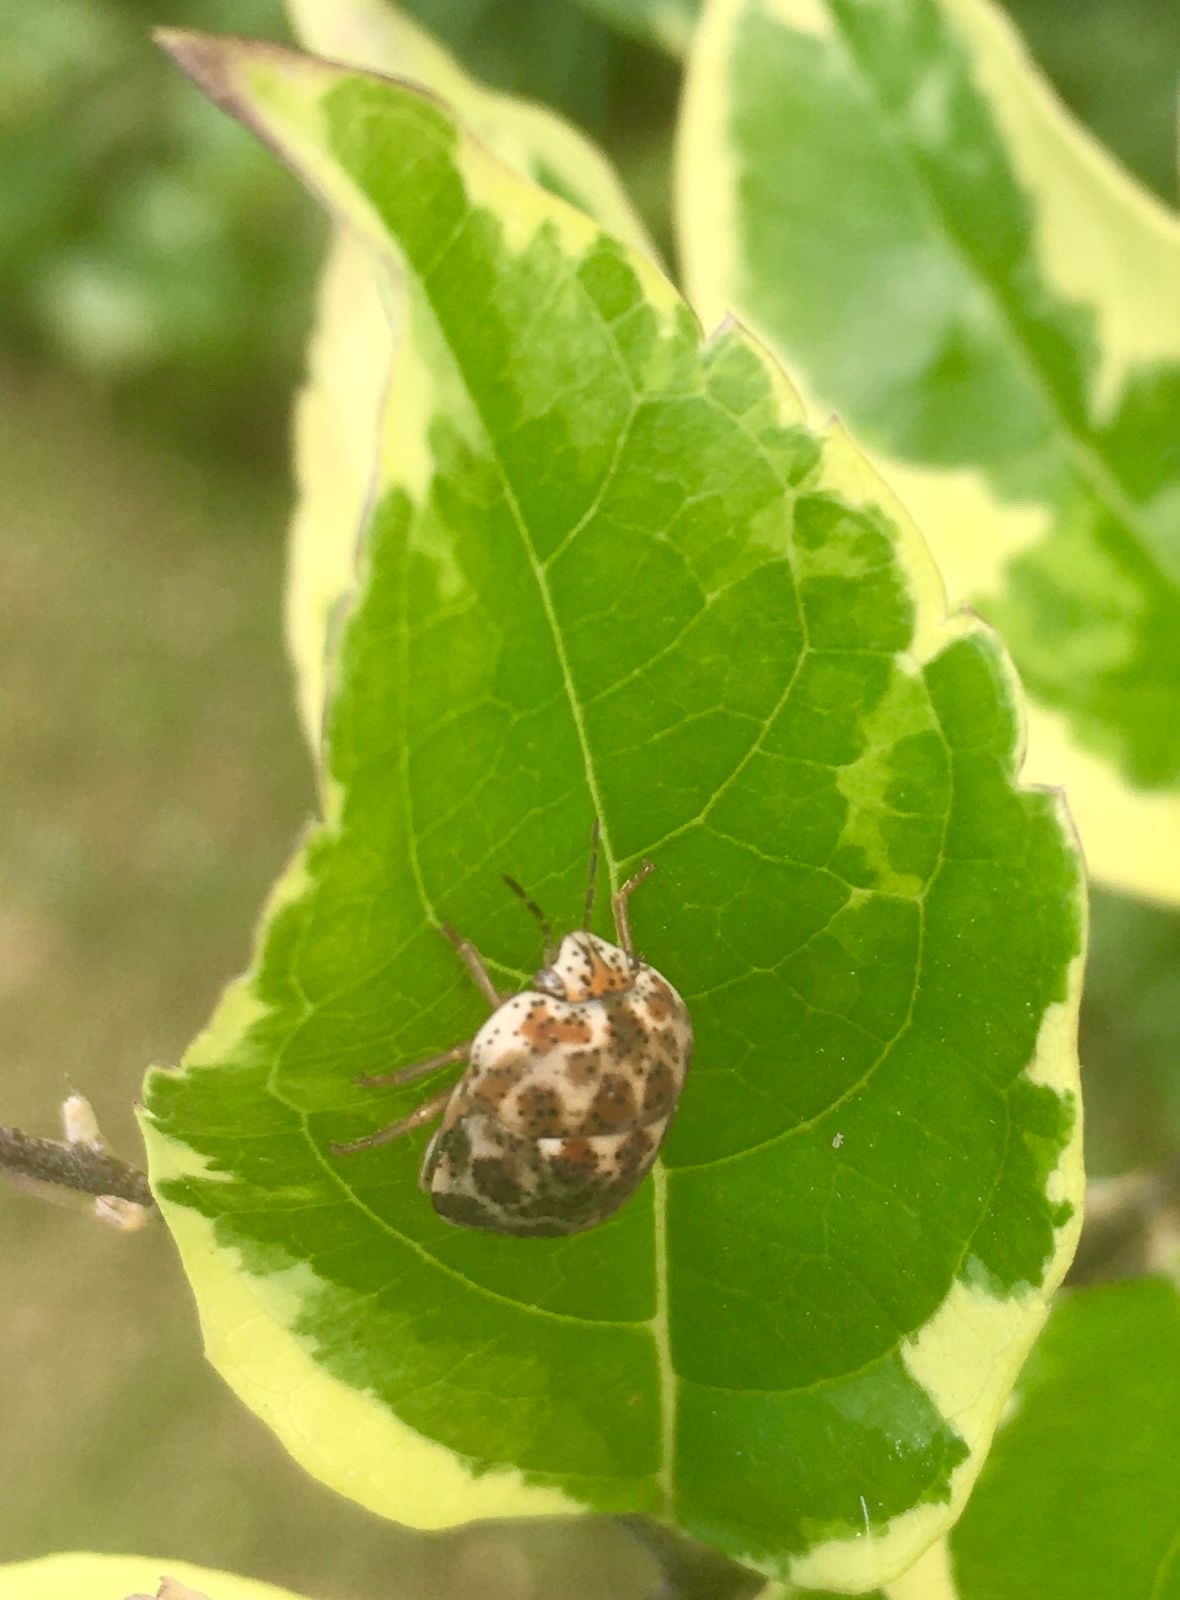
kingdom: Animalia
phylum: Arthropoda
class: Insecta
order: Hemiptera
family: Scutelleridae
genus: Sphaerocoris
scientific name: Sphaerocoris
